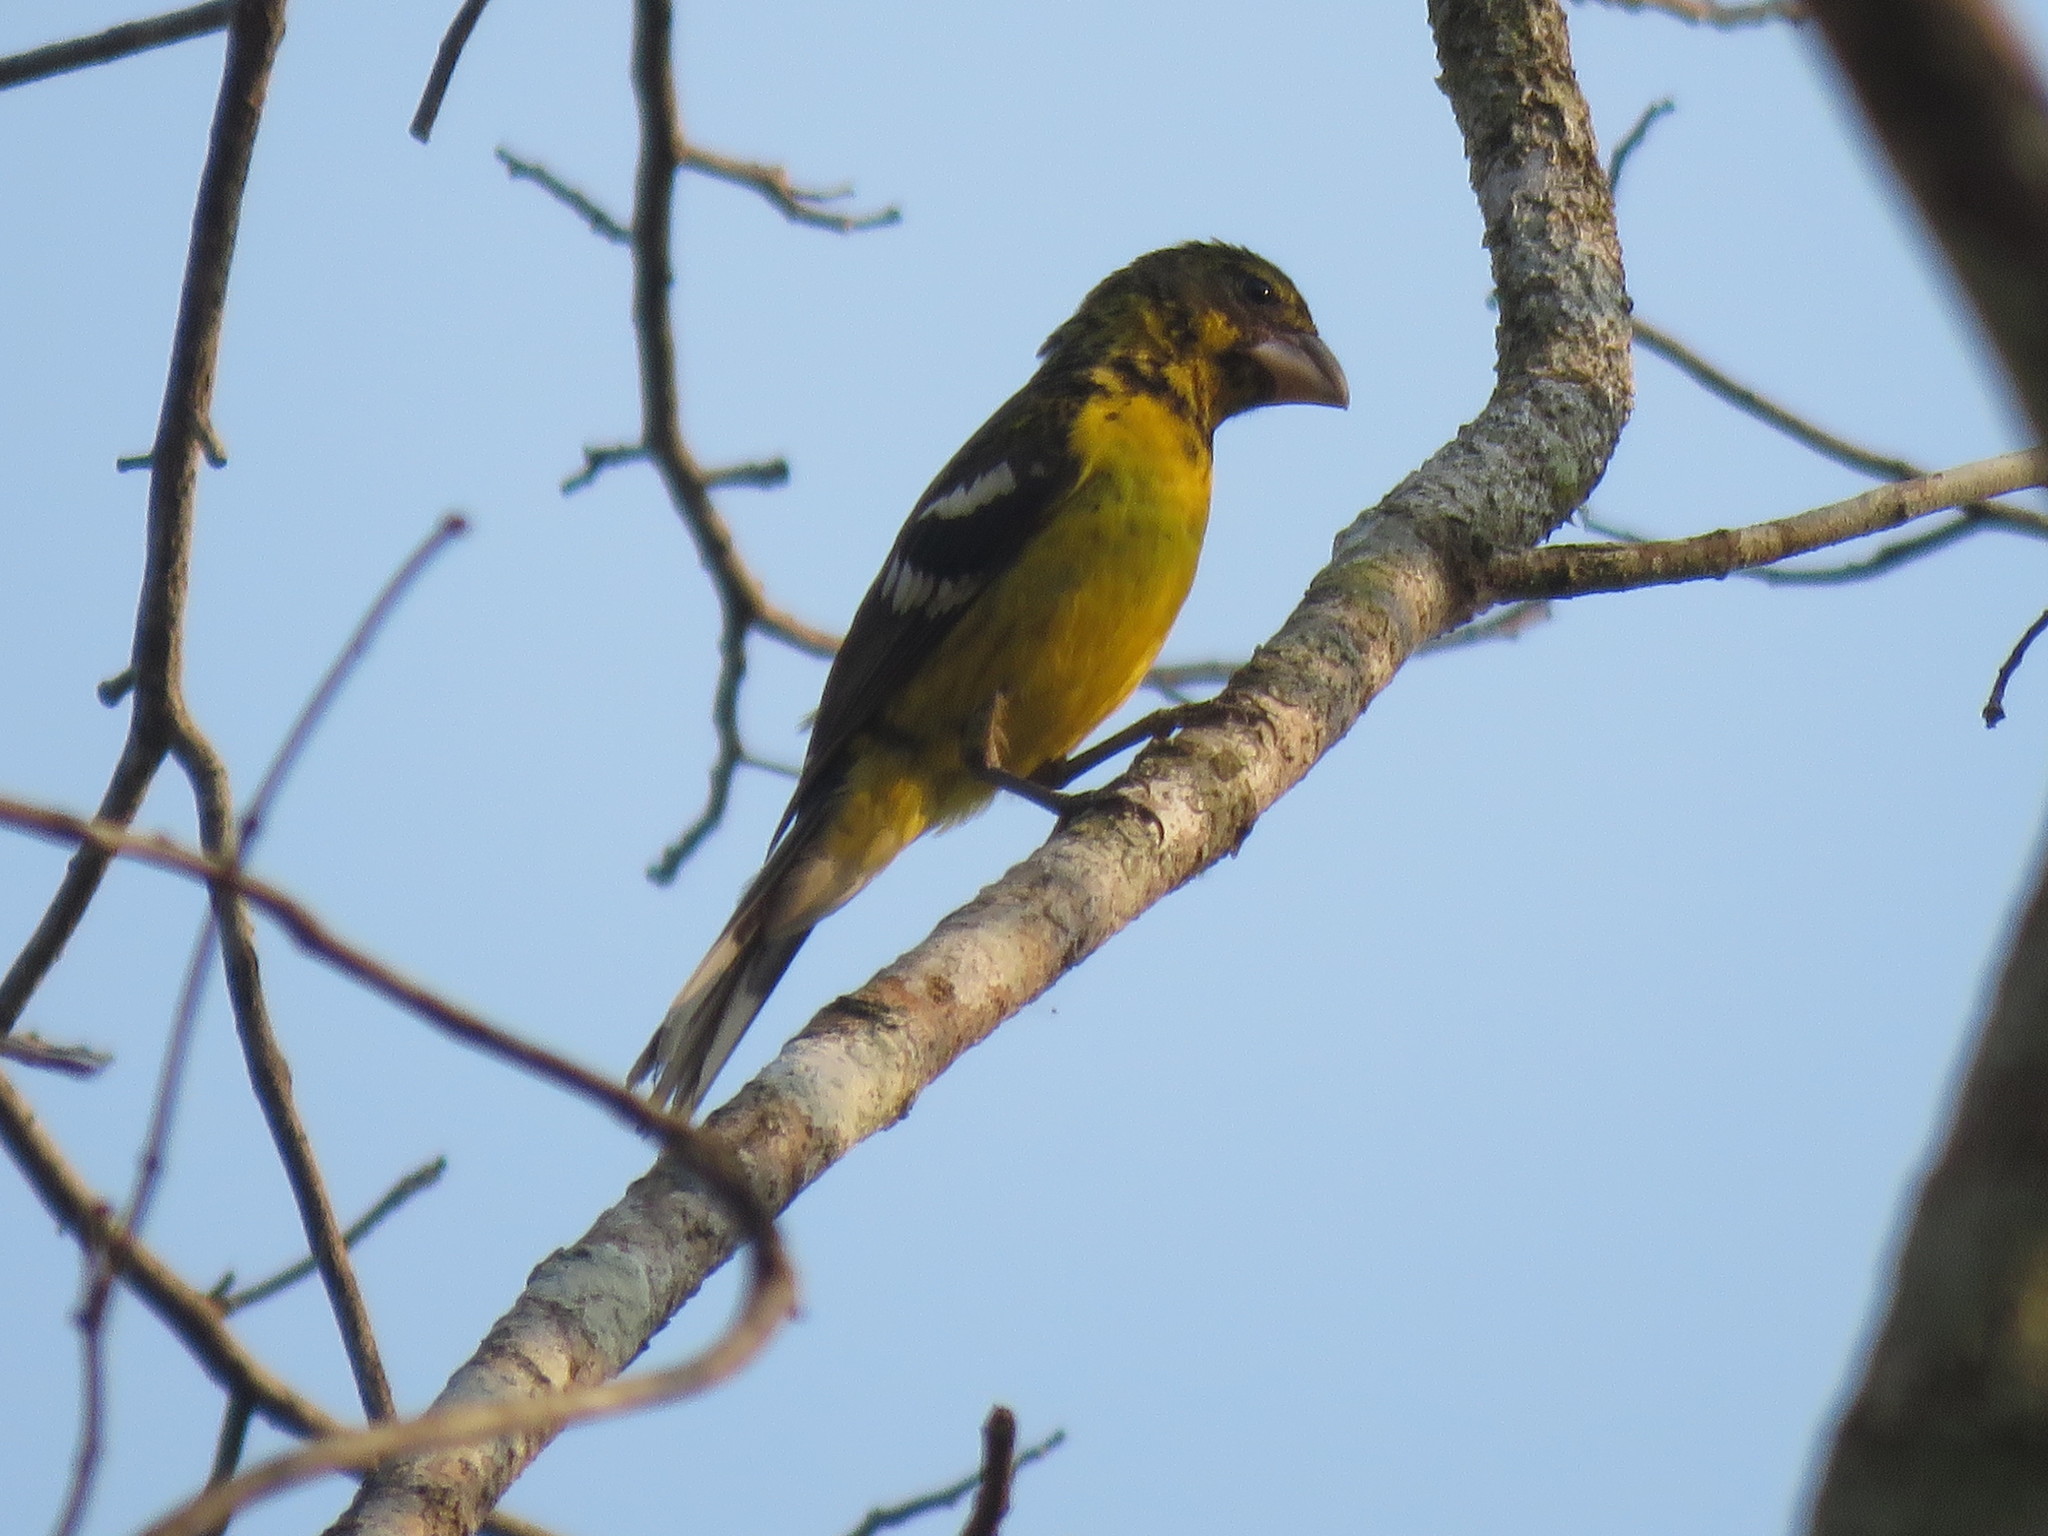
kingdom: Animalia
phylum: Chordata
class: Aves
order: Passeriformes
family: Cardinalidae
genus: Pheucticus
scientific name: Pheucticus aureoventris
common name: Black-backed grosbeak
